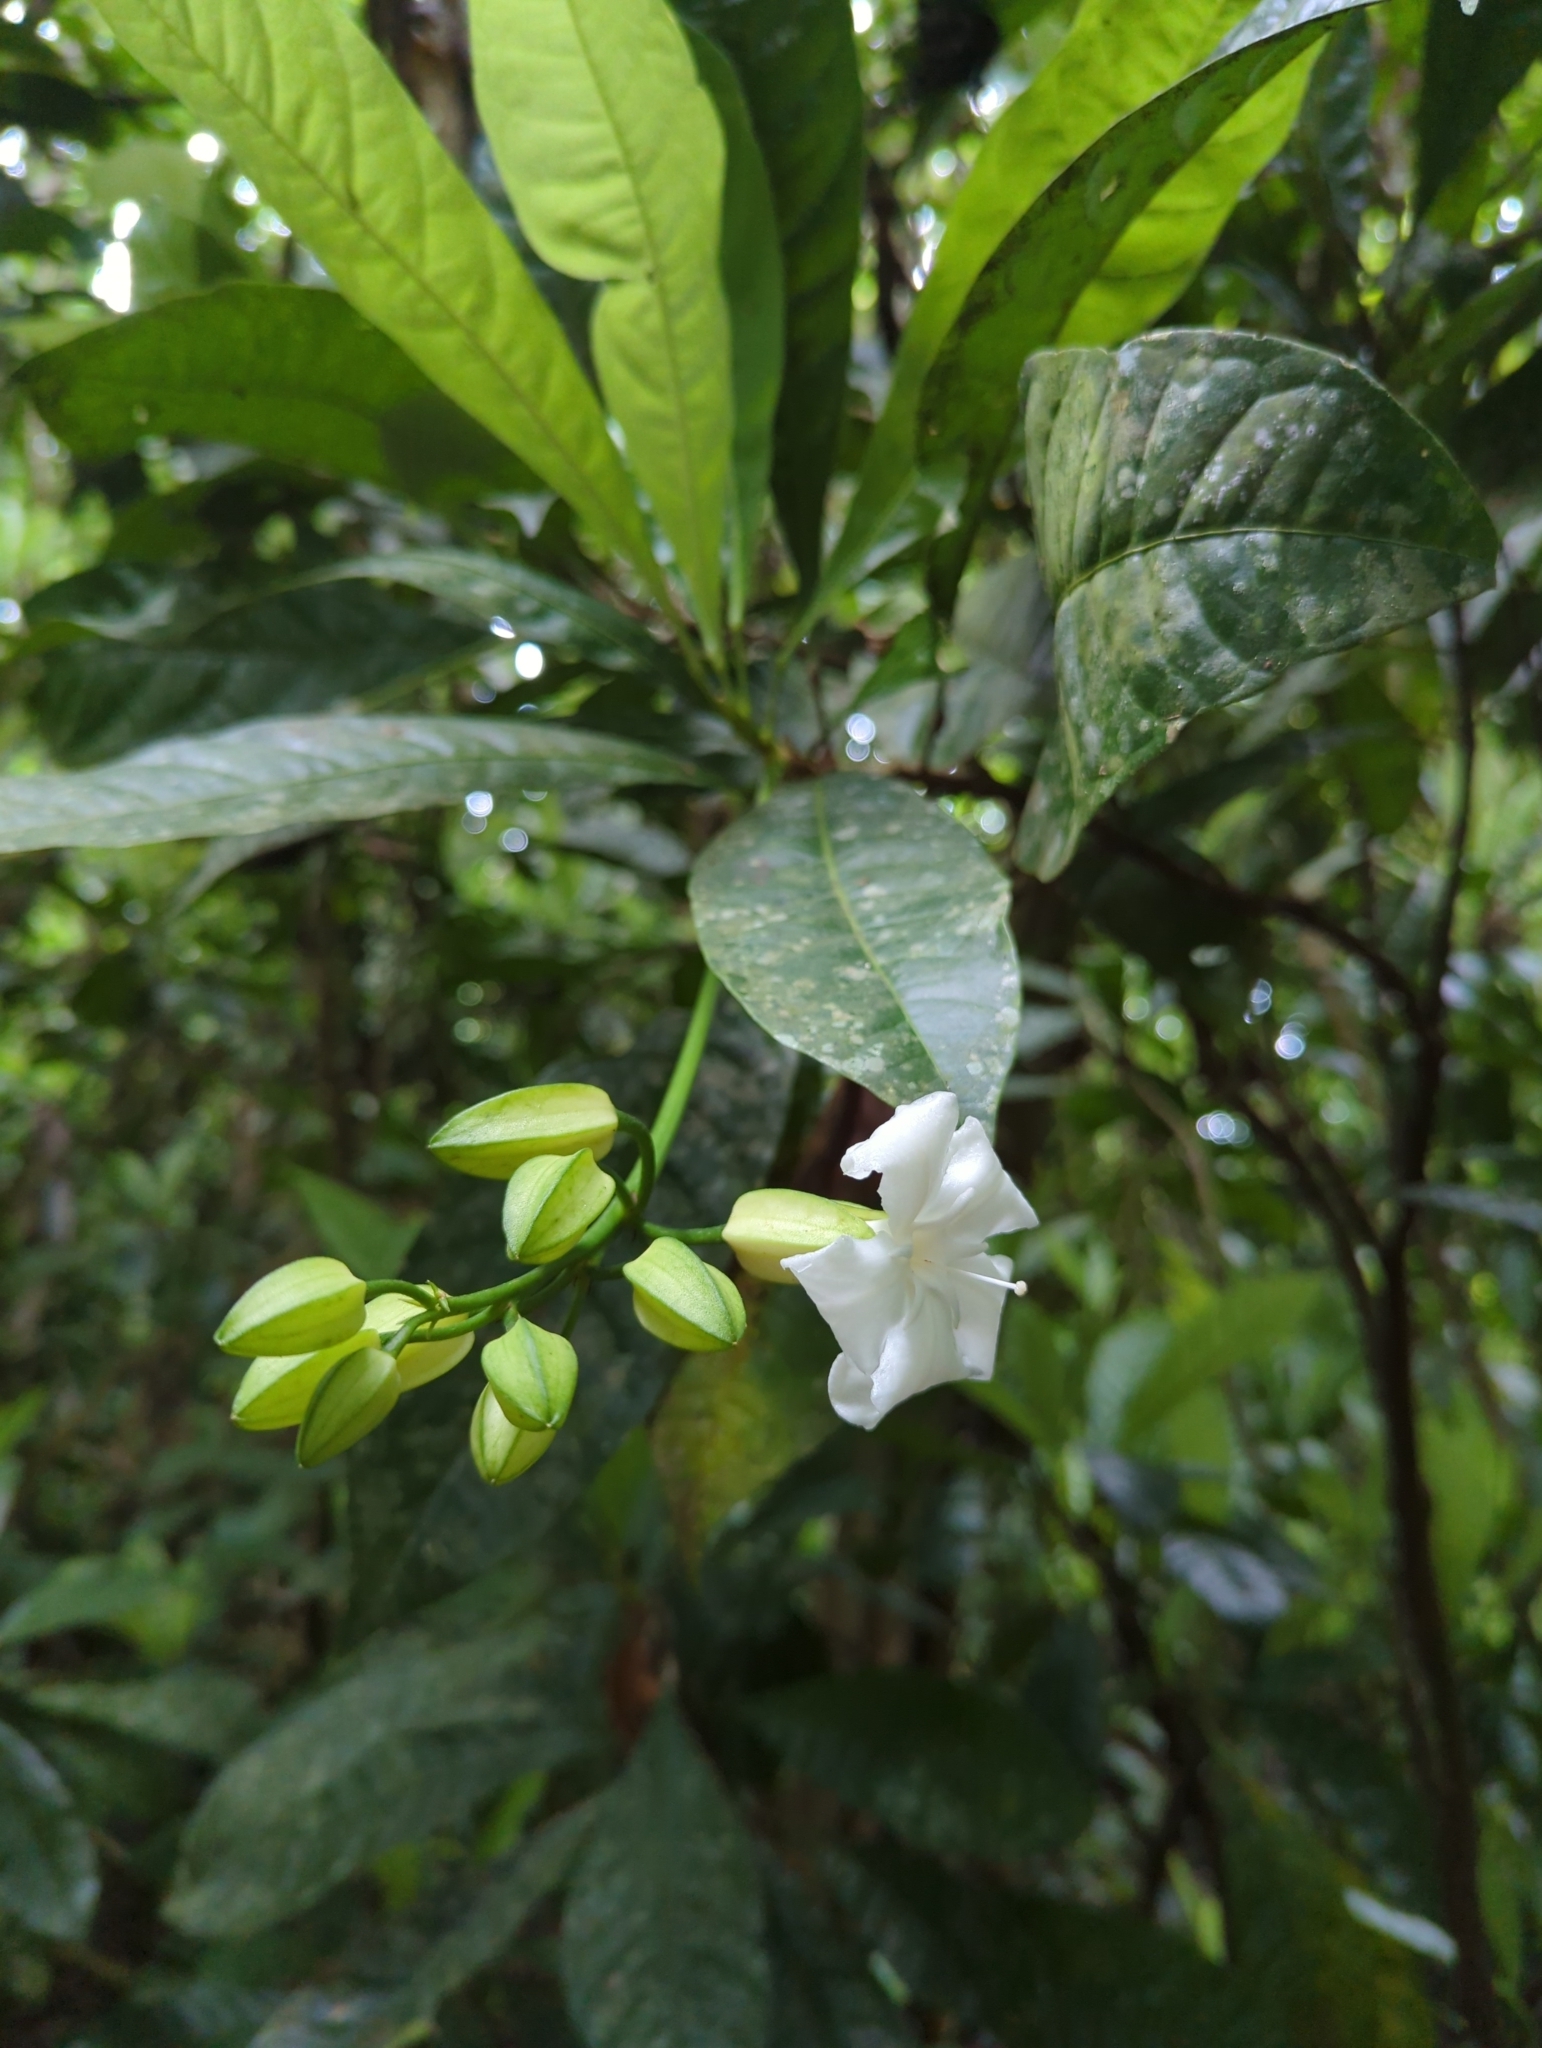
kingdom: Plantae
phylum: Tracheophyta
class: Magnoliopsida
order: Sapindales
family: Rutaceae
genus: Erythrochiton
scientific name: Erythrochiton gymnanthus
